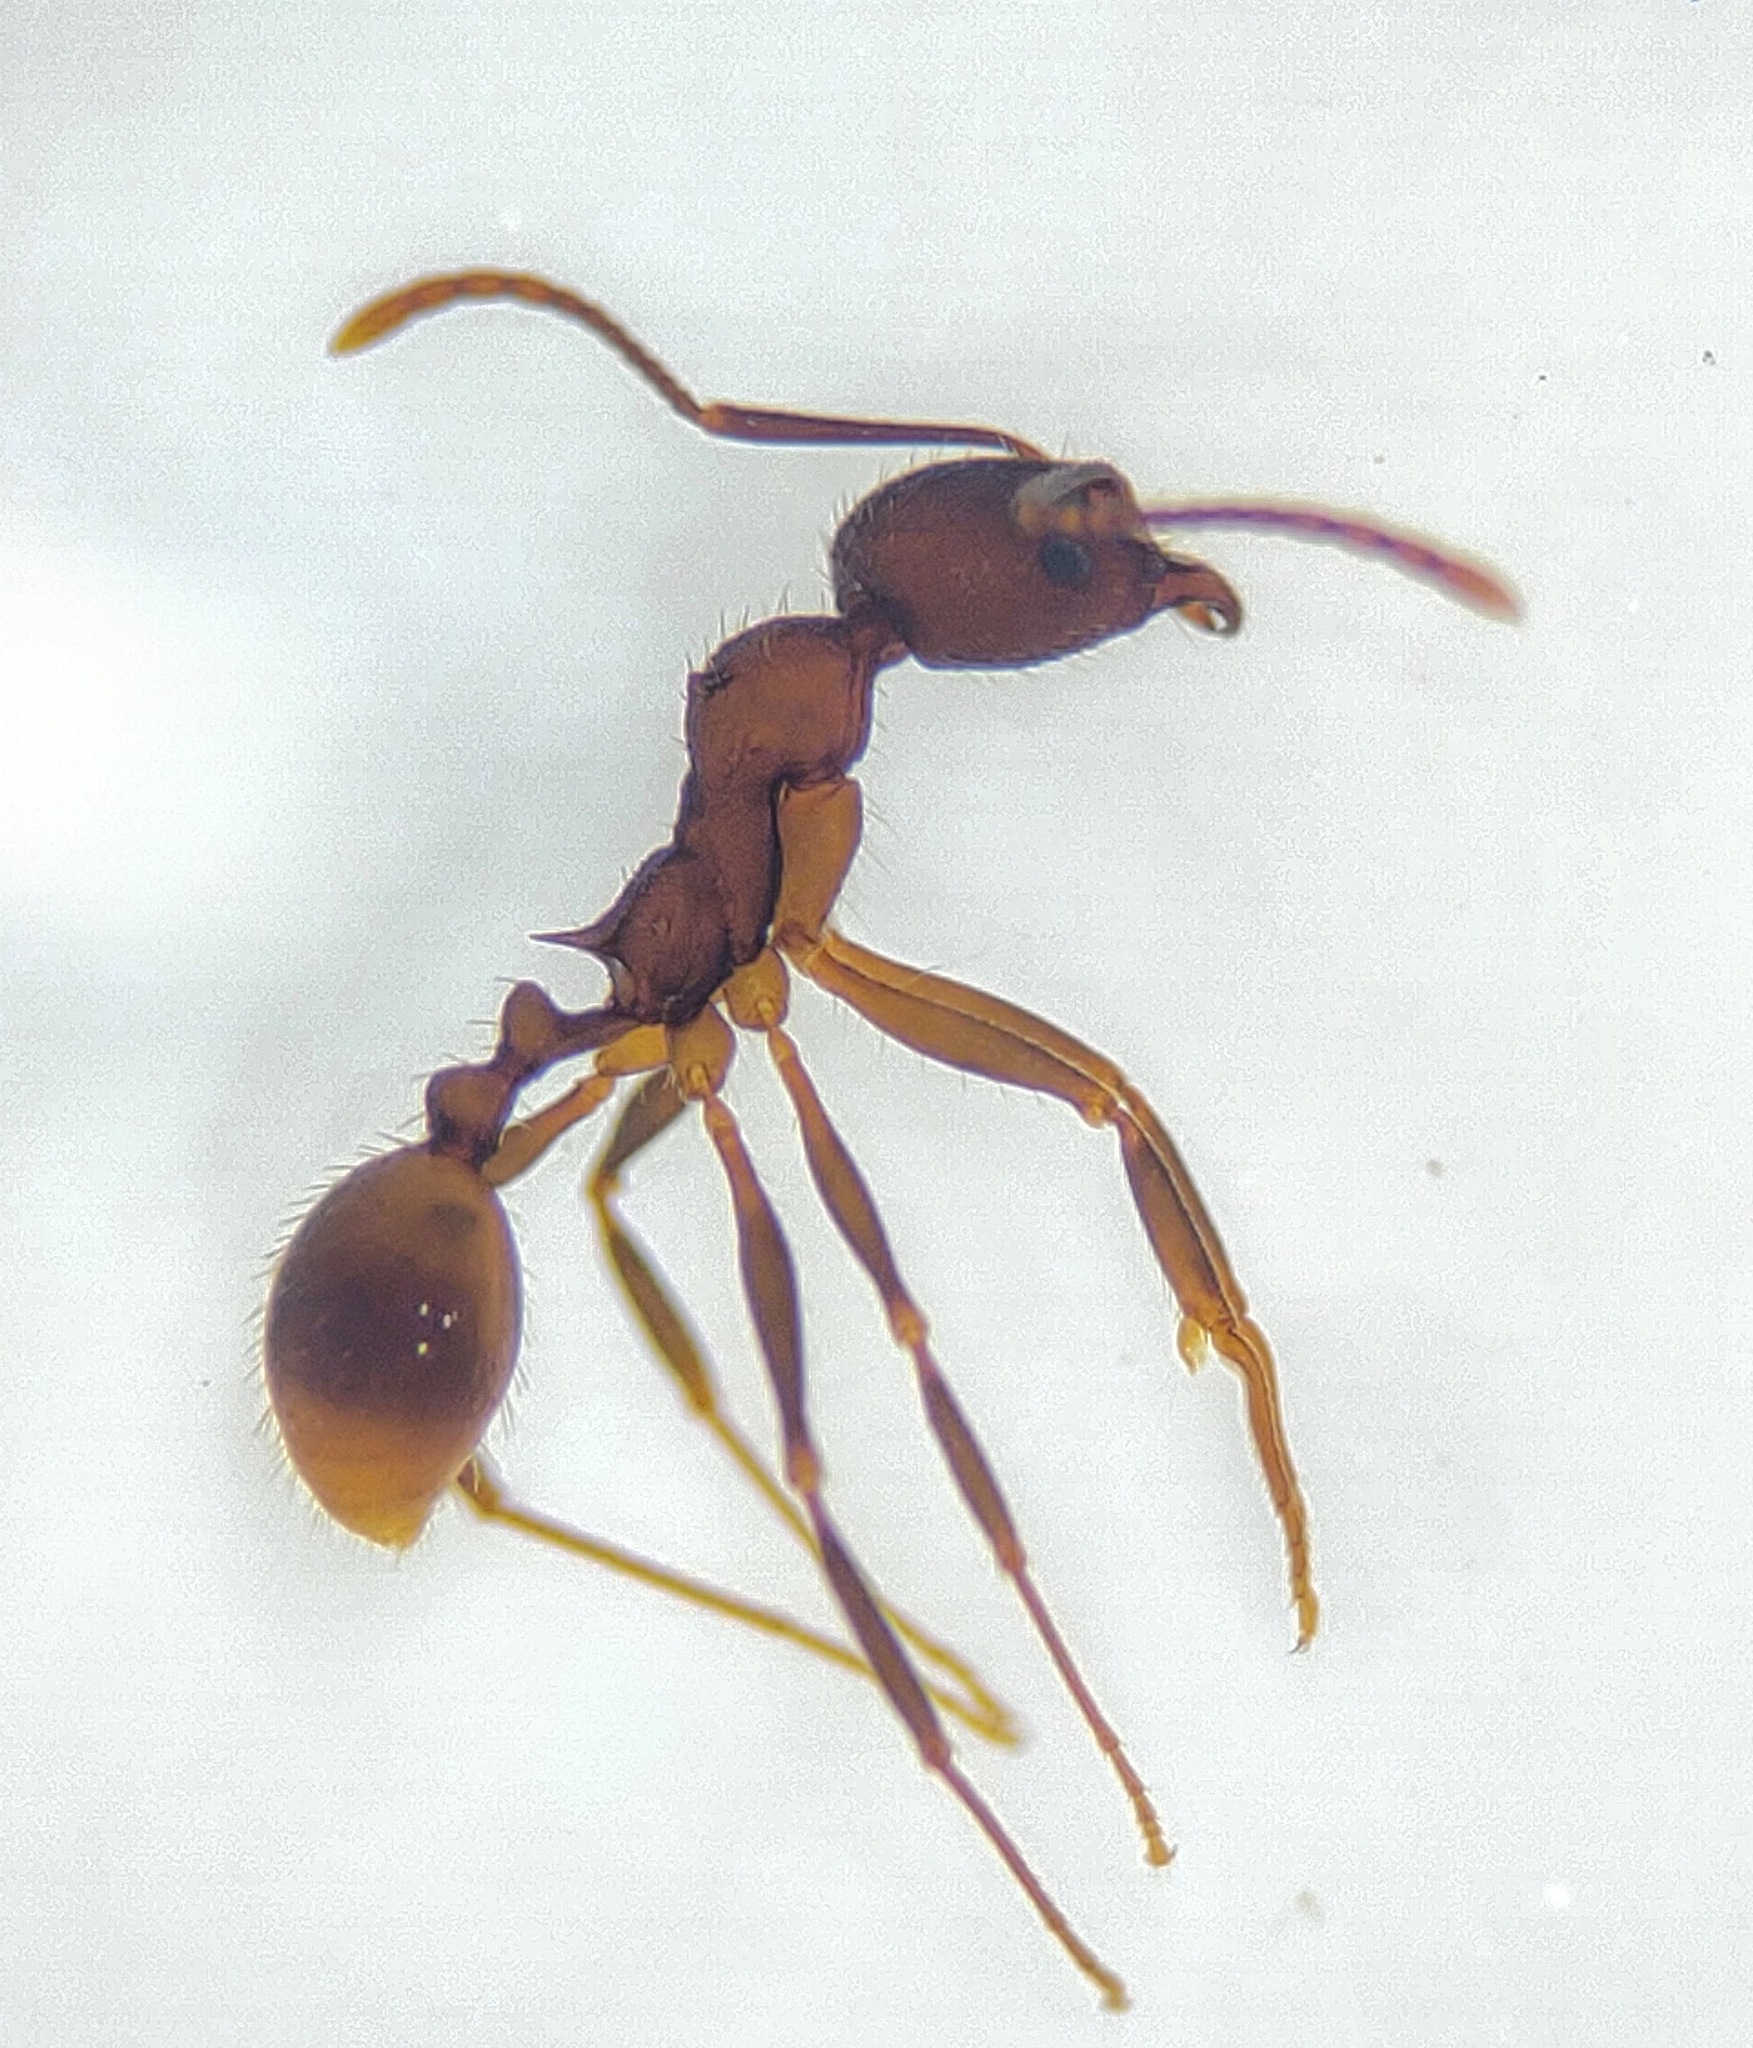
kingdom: Animalia
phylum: Arthropoda
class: Insecta
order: Hymenoptera
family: Formicidae
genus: Aphaenogaster
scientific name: Aphaenogaster fulva
